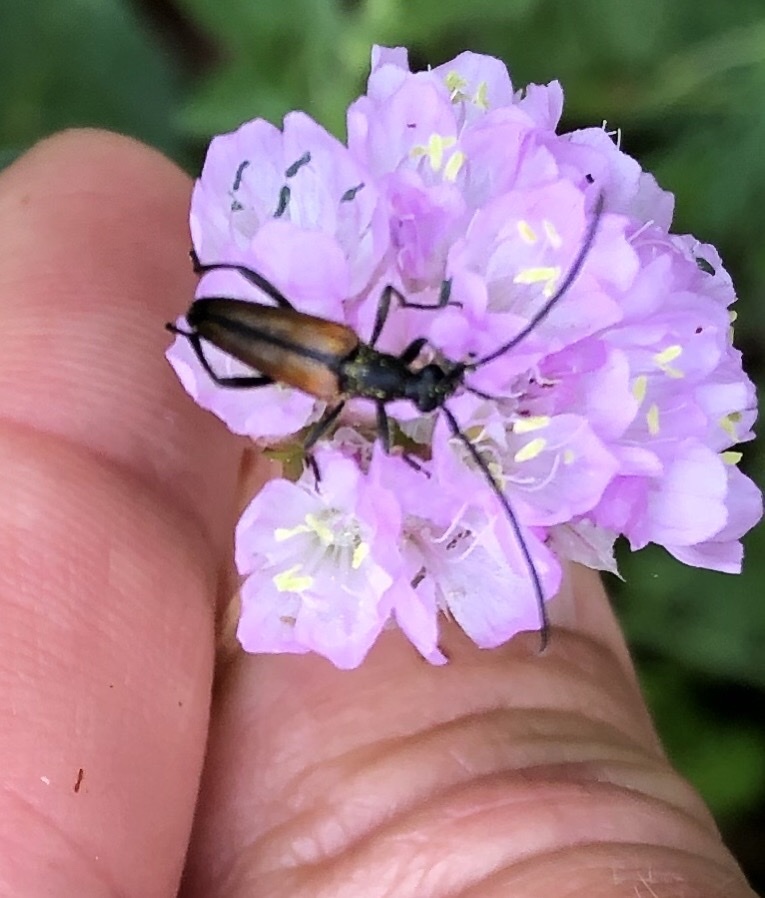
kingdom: Animalia
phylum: Arthropoda
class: Insecta
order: Coleoptera
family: Cerambycidae
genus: Stenurella
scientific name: Stenurella melanura
